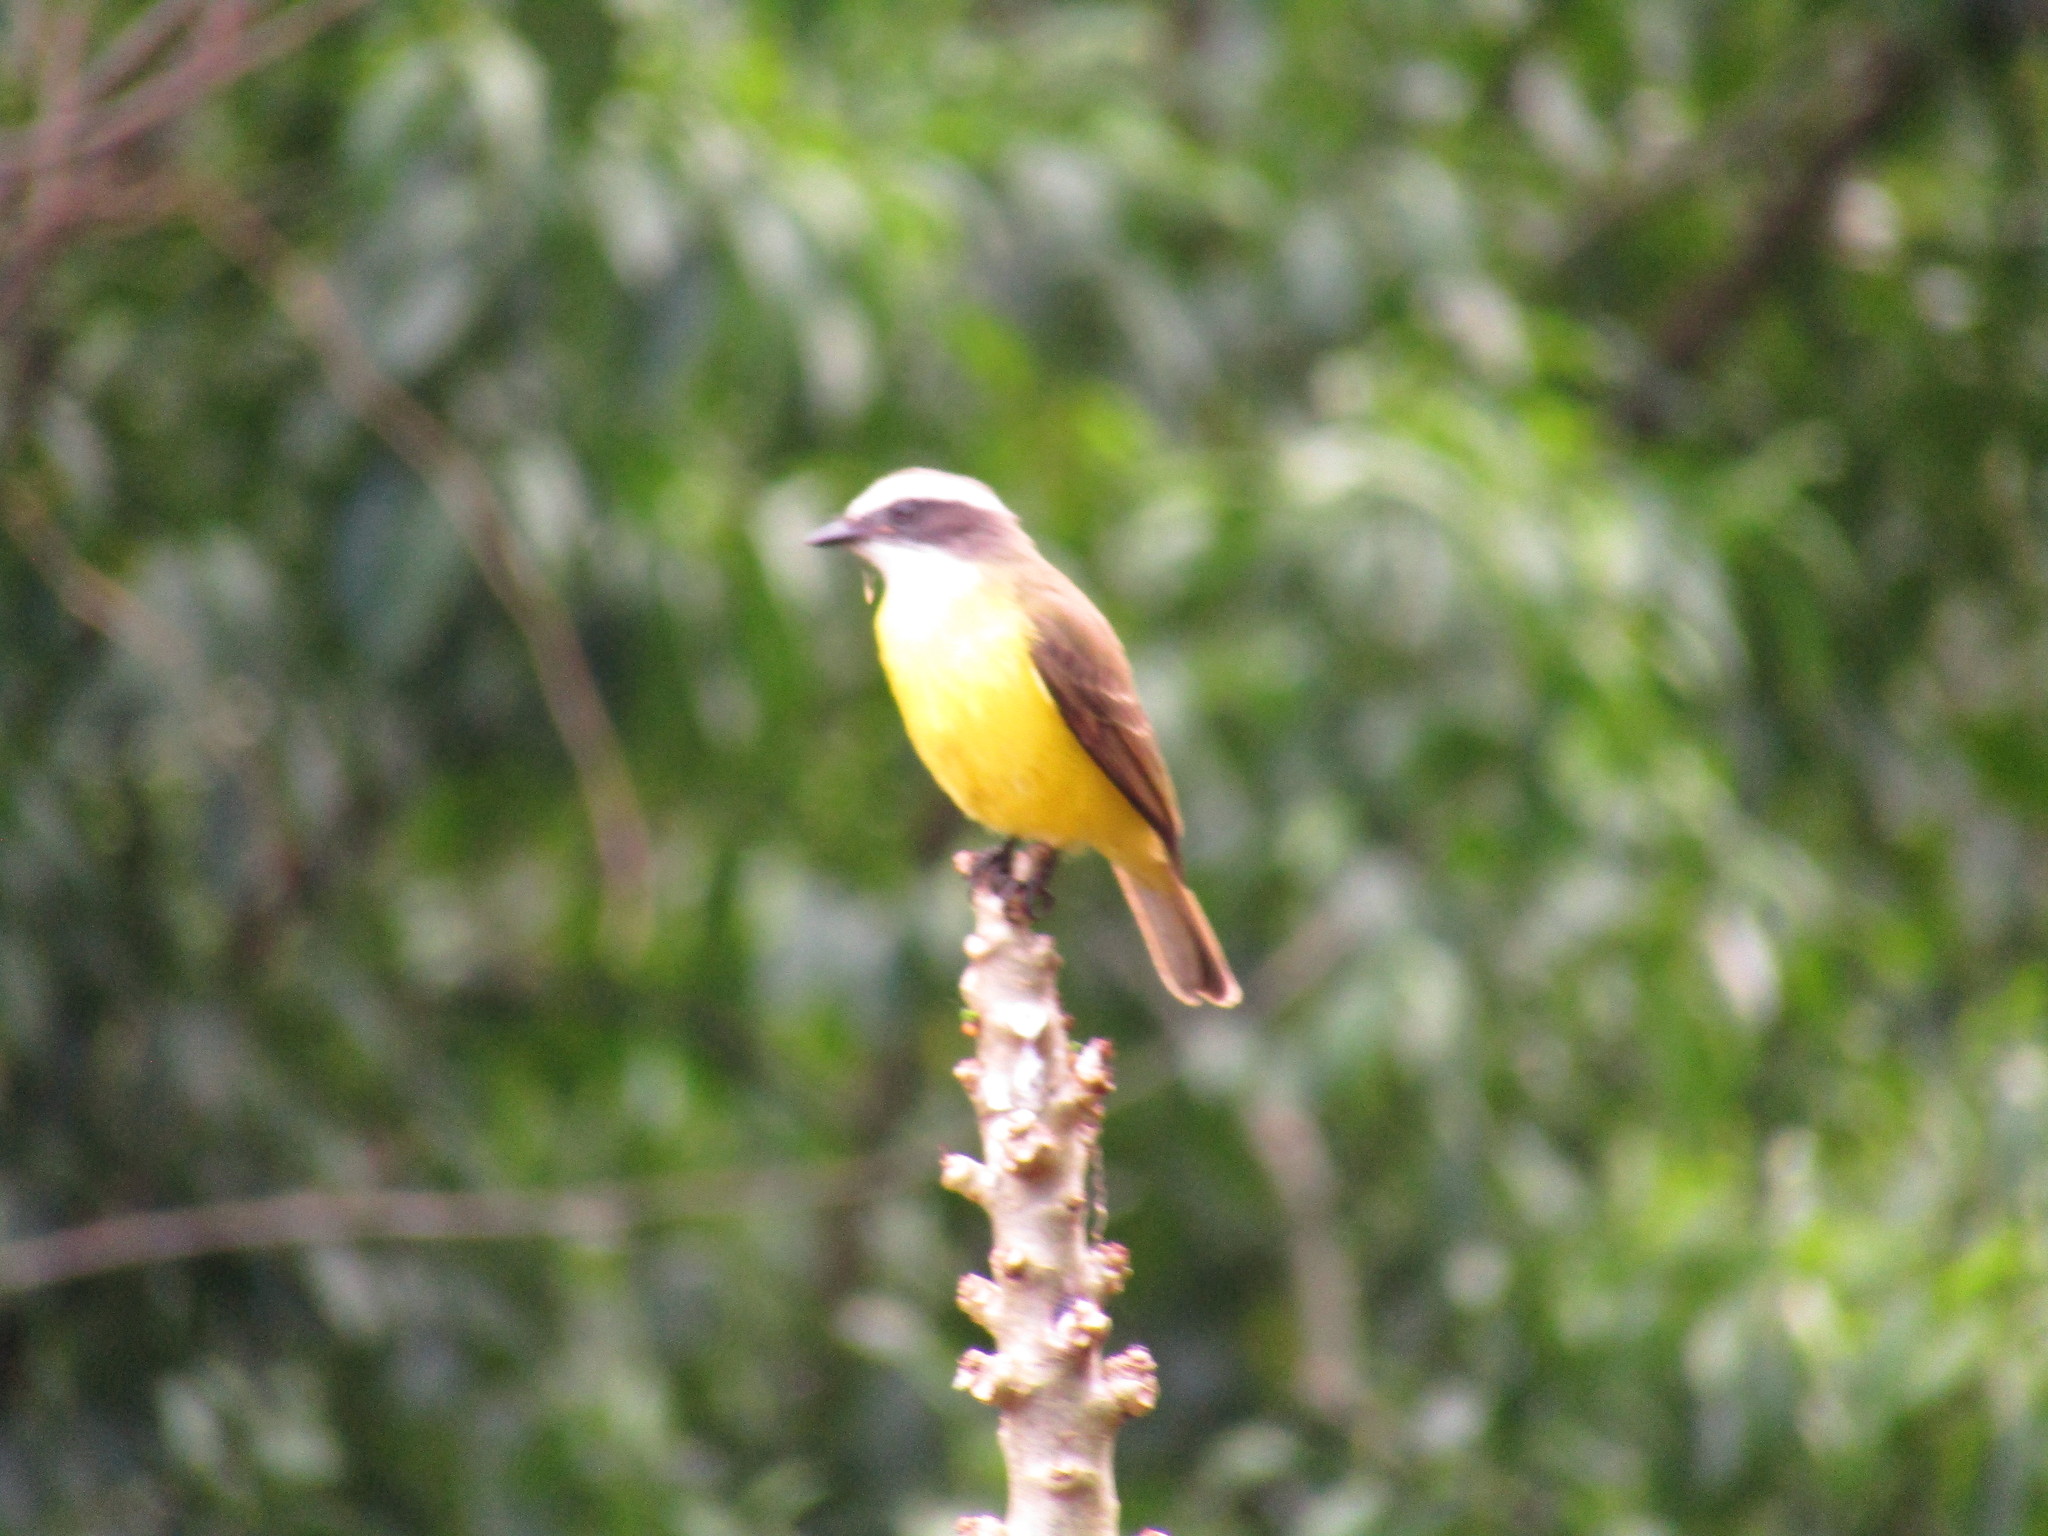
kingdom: Animalia
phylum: Chordata
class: Aves
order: Passeriformes
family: Tyrannidae
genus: Myiozetetes
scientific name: Myiozetetes similis
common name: Social flycatcher
